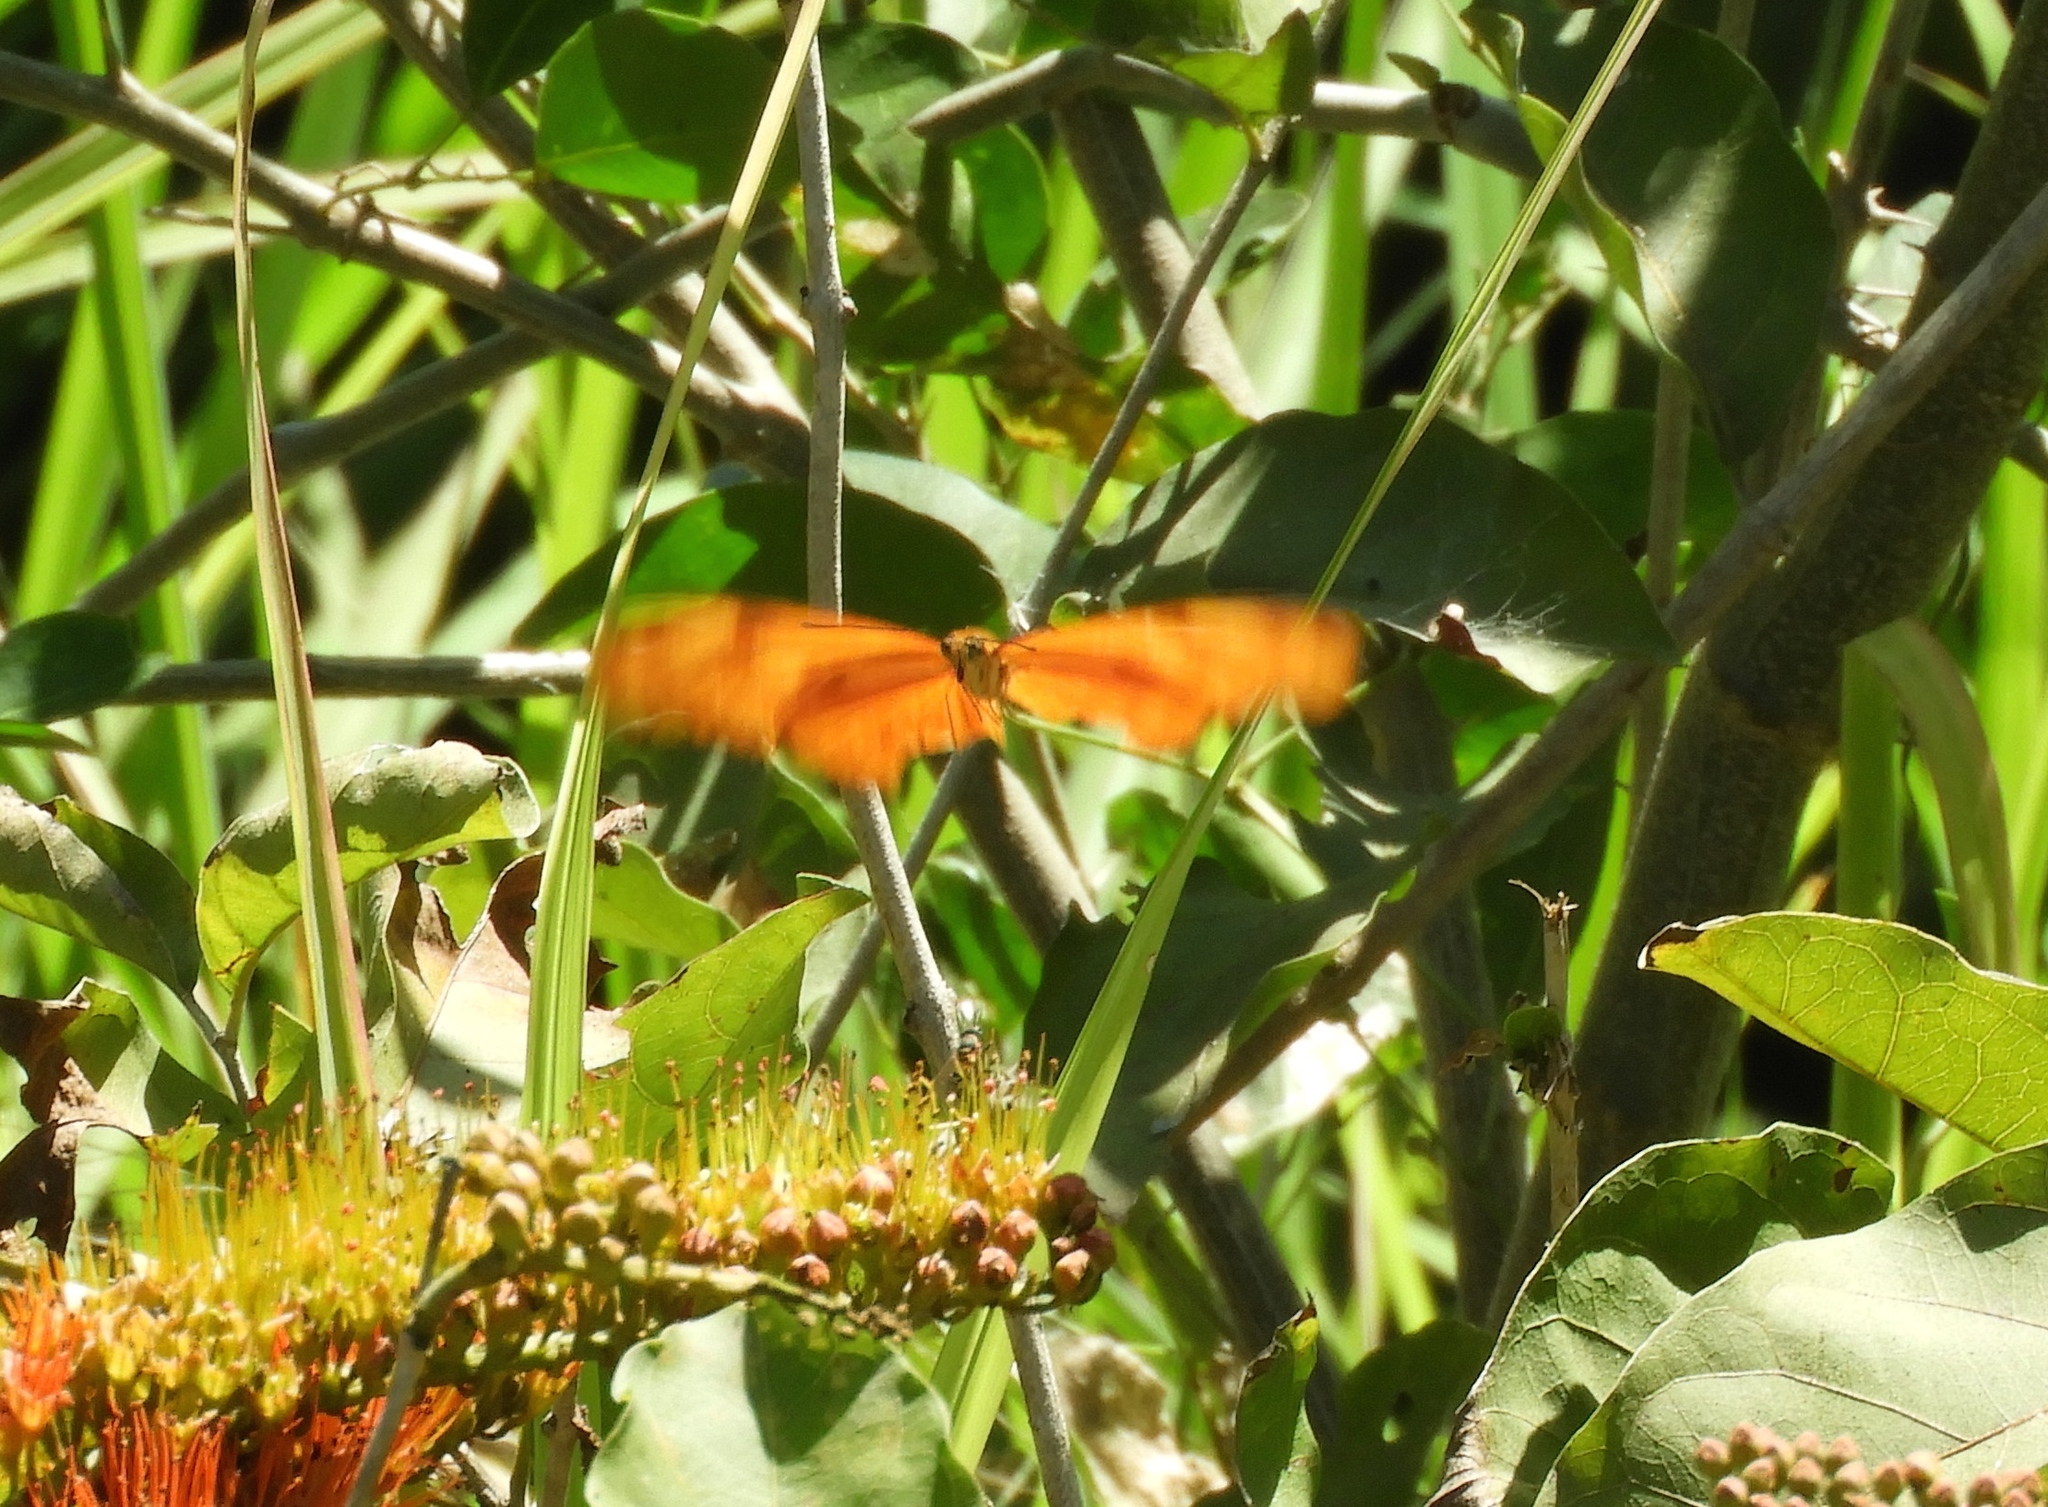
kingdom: Animalia
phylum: Arthropoda
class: Insecta
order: Lepidoptera
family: Nymphalidae
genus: Dryas
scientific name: Dryas iulia
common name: Flambeau
